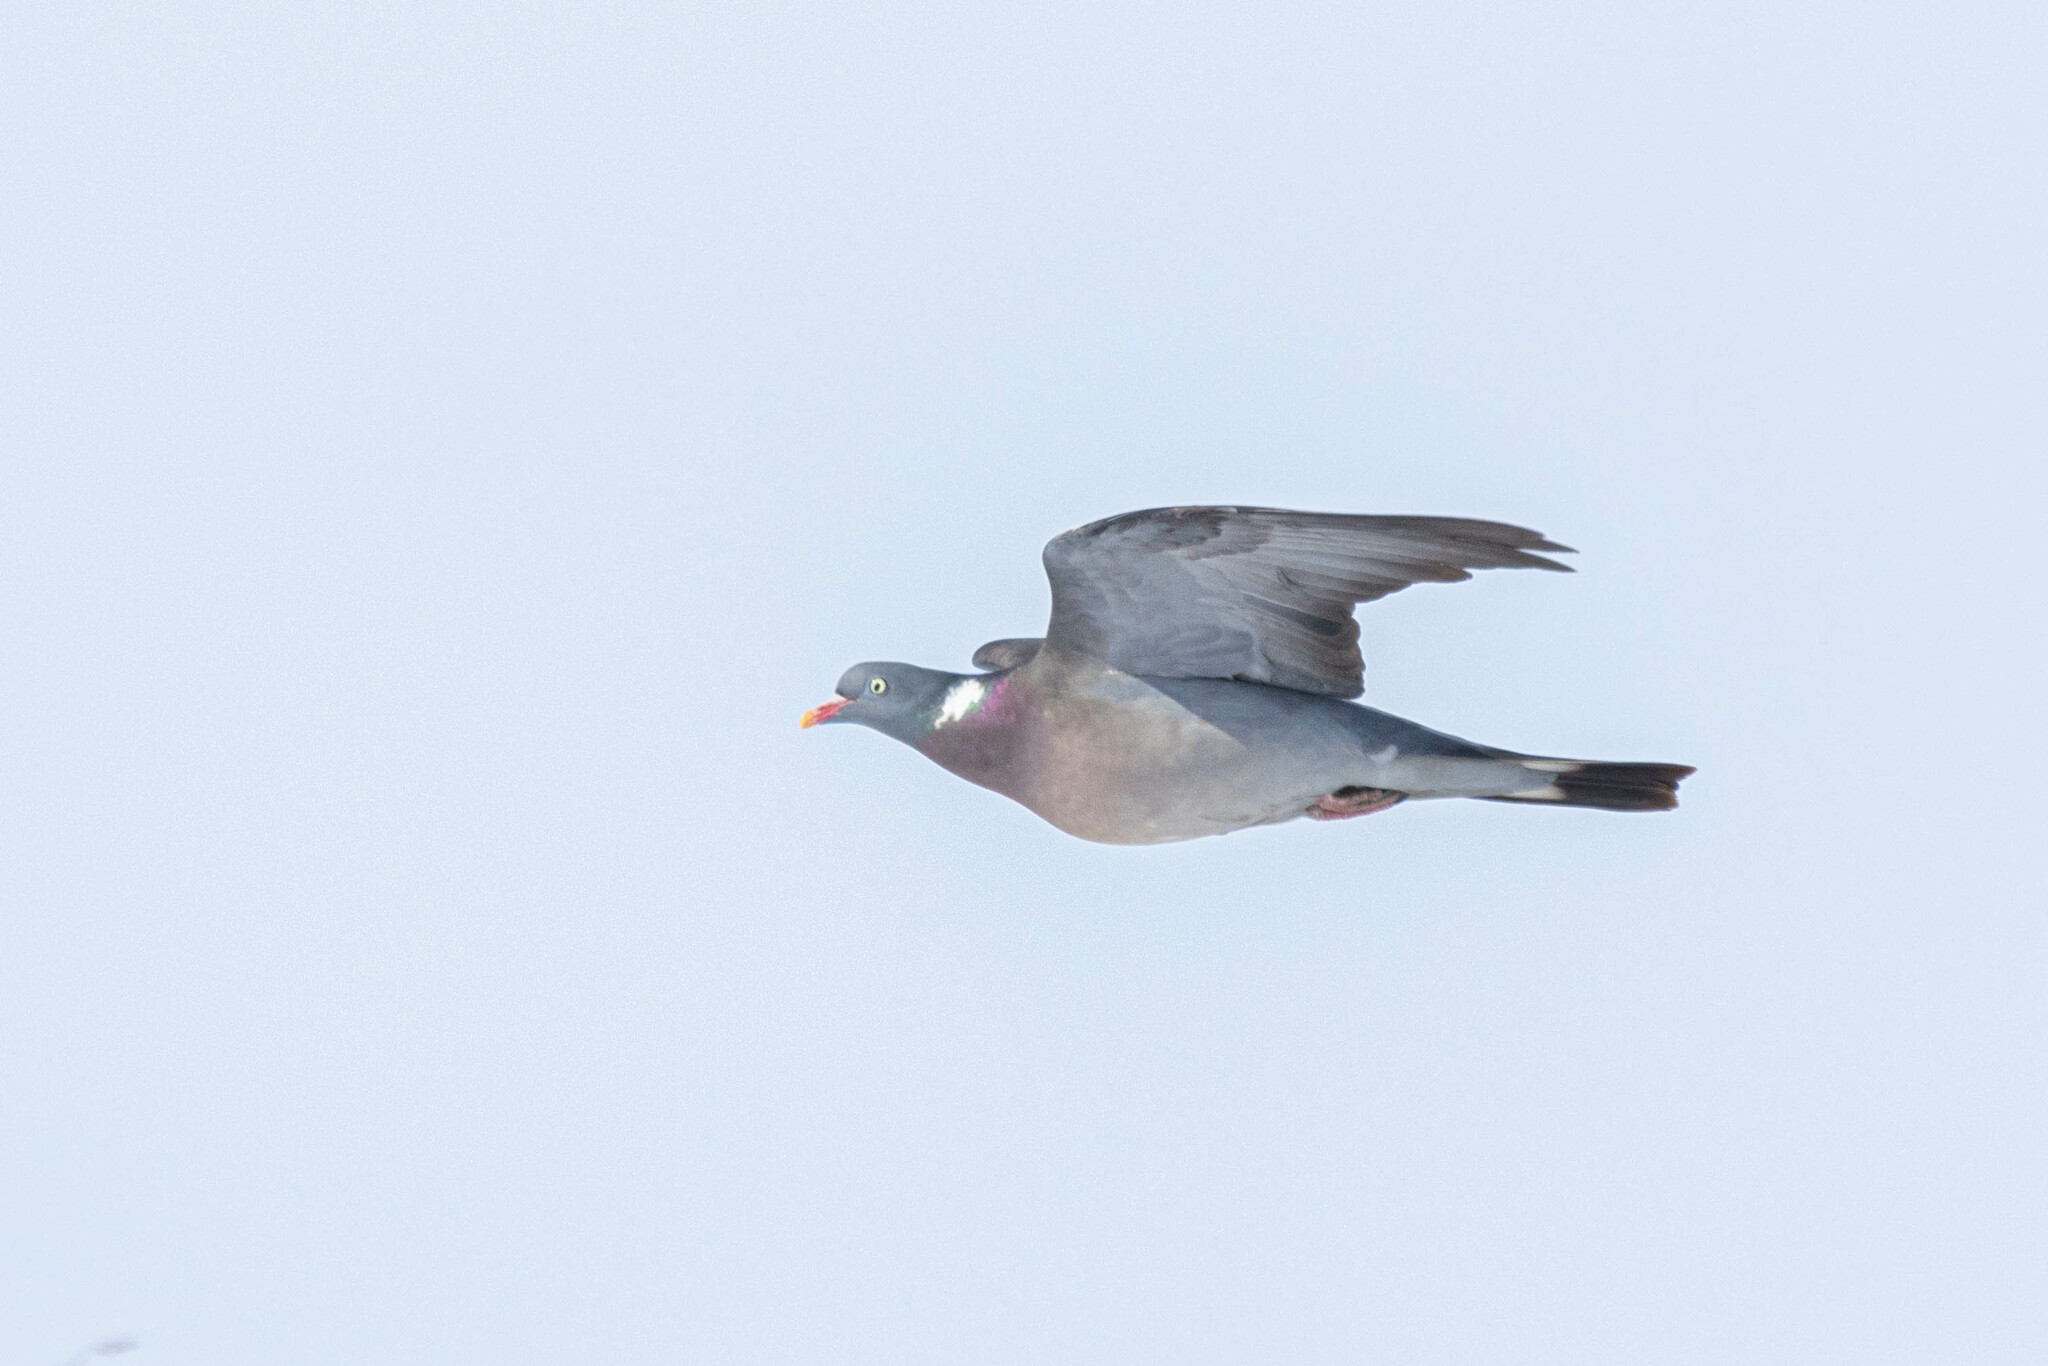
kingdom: Animalia
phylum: Chordata
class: Aves
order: Columbiformes
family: Columbidae
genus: Columba
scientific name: Columba palumbus
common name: Common wood pigeon
